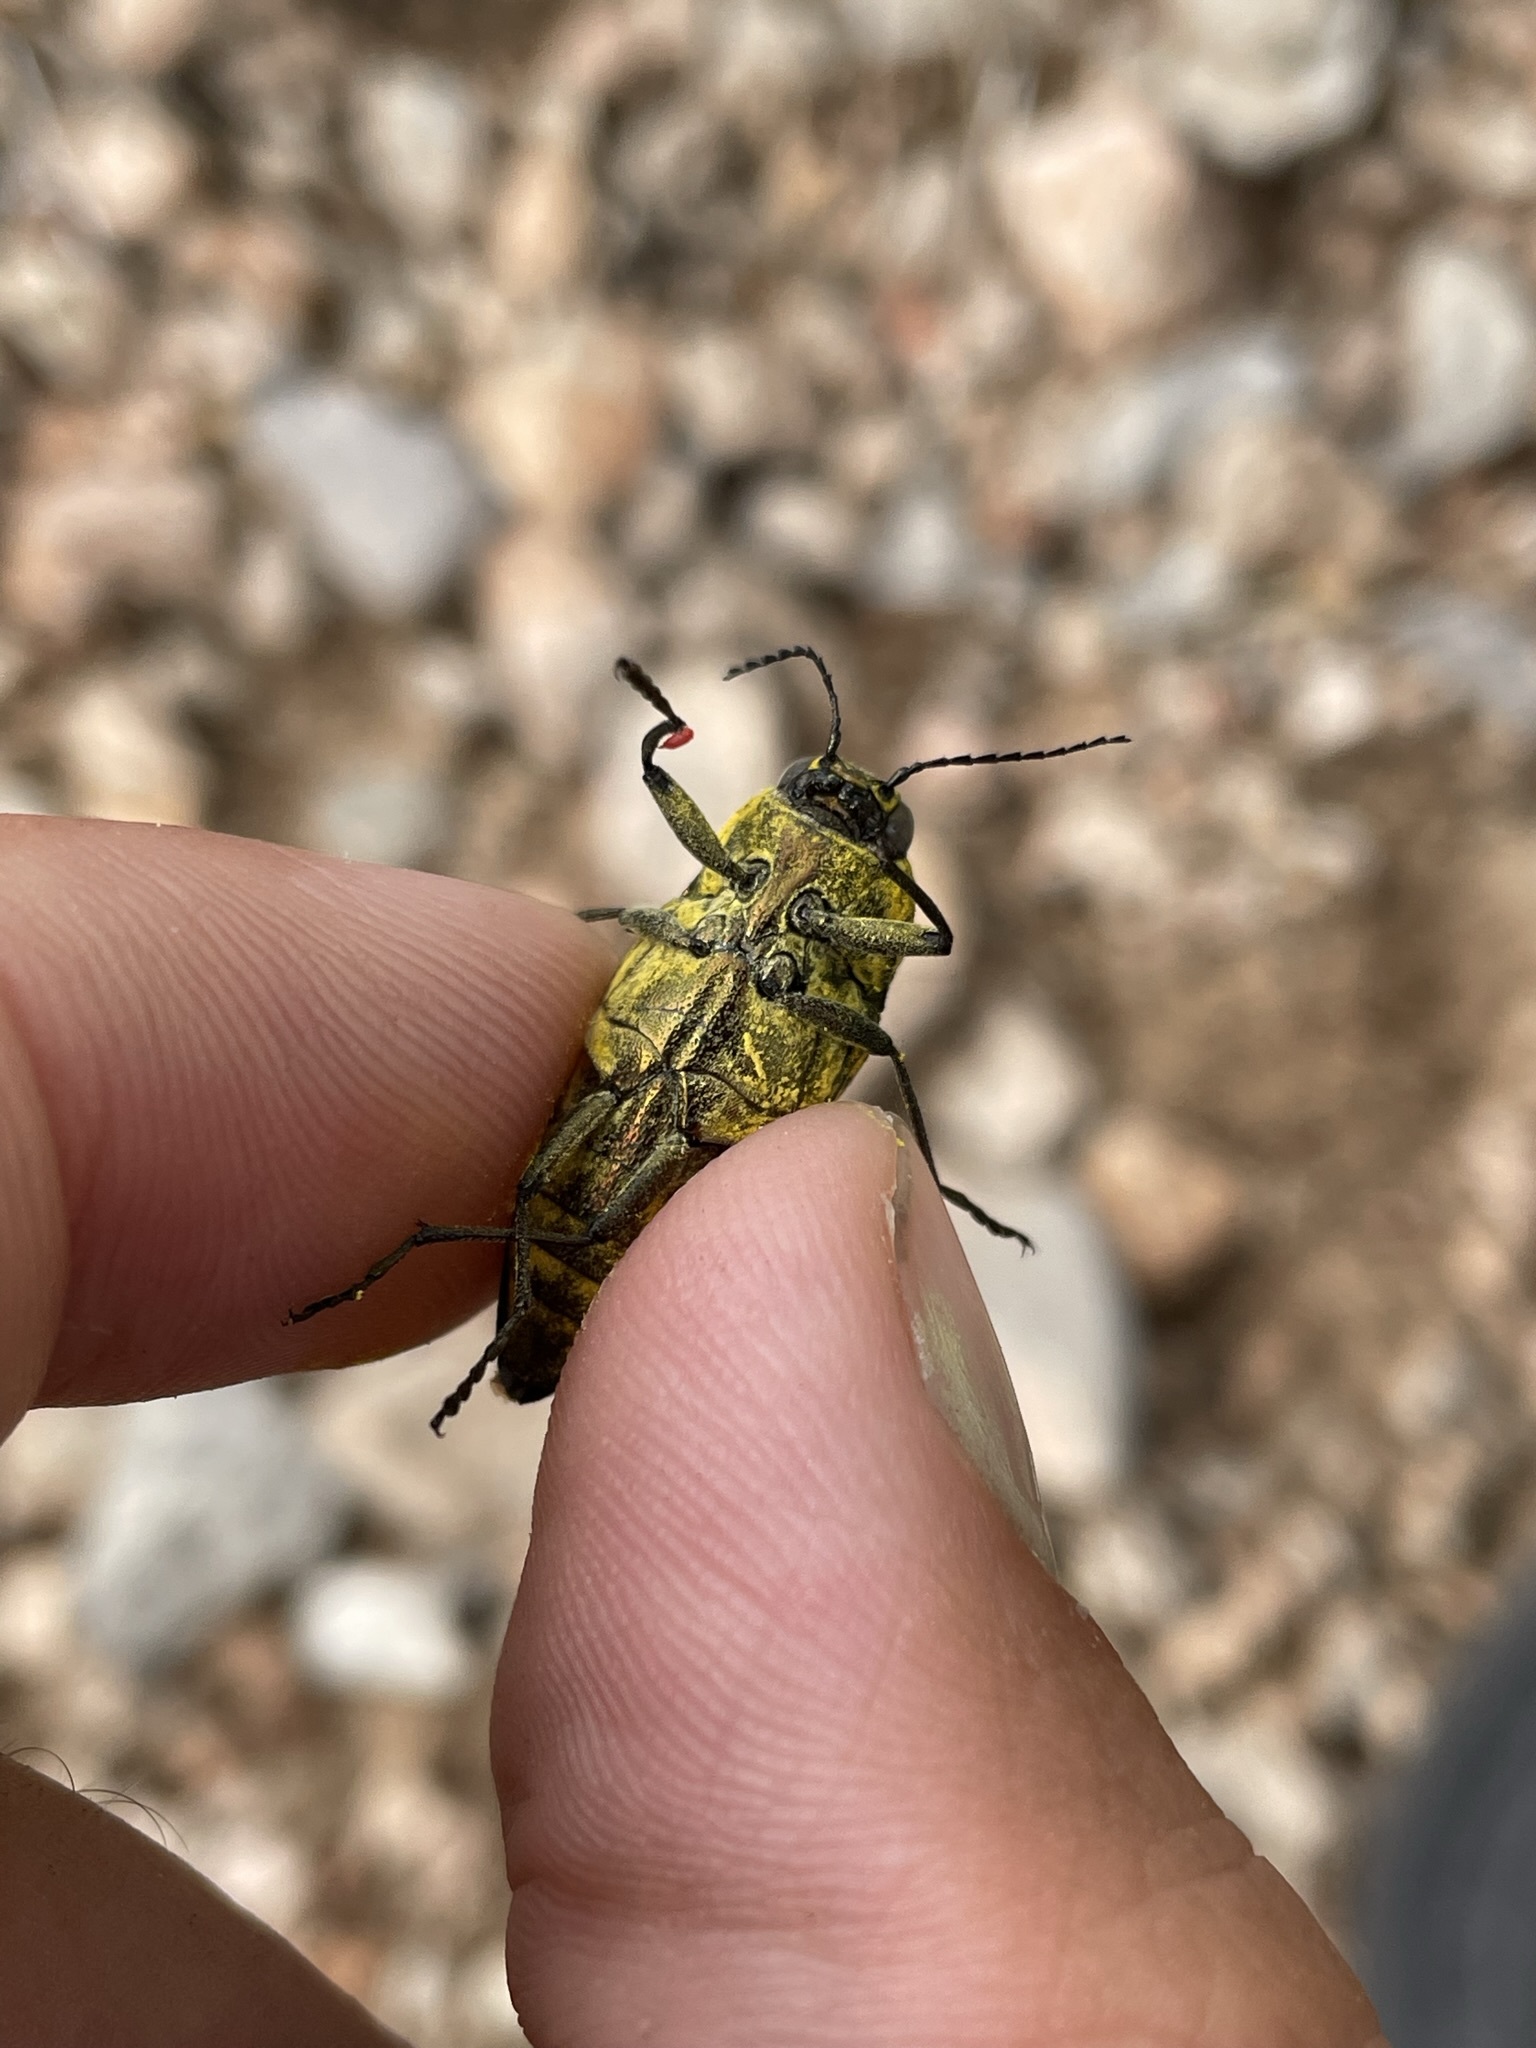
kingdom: Animalia
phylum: Arthropoda
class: Insecta
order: Coleoptera
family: Buprestidae
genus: Gyascutus
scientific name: Gyascutus planicosta
